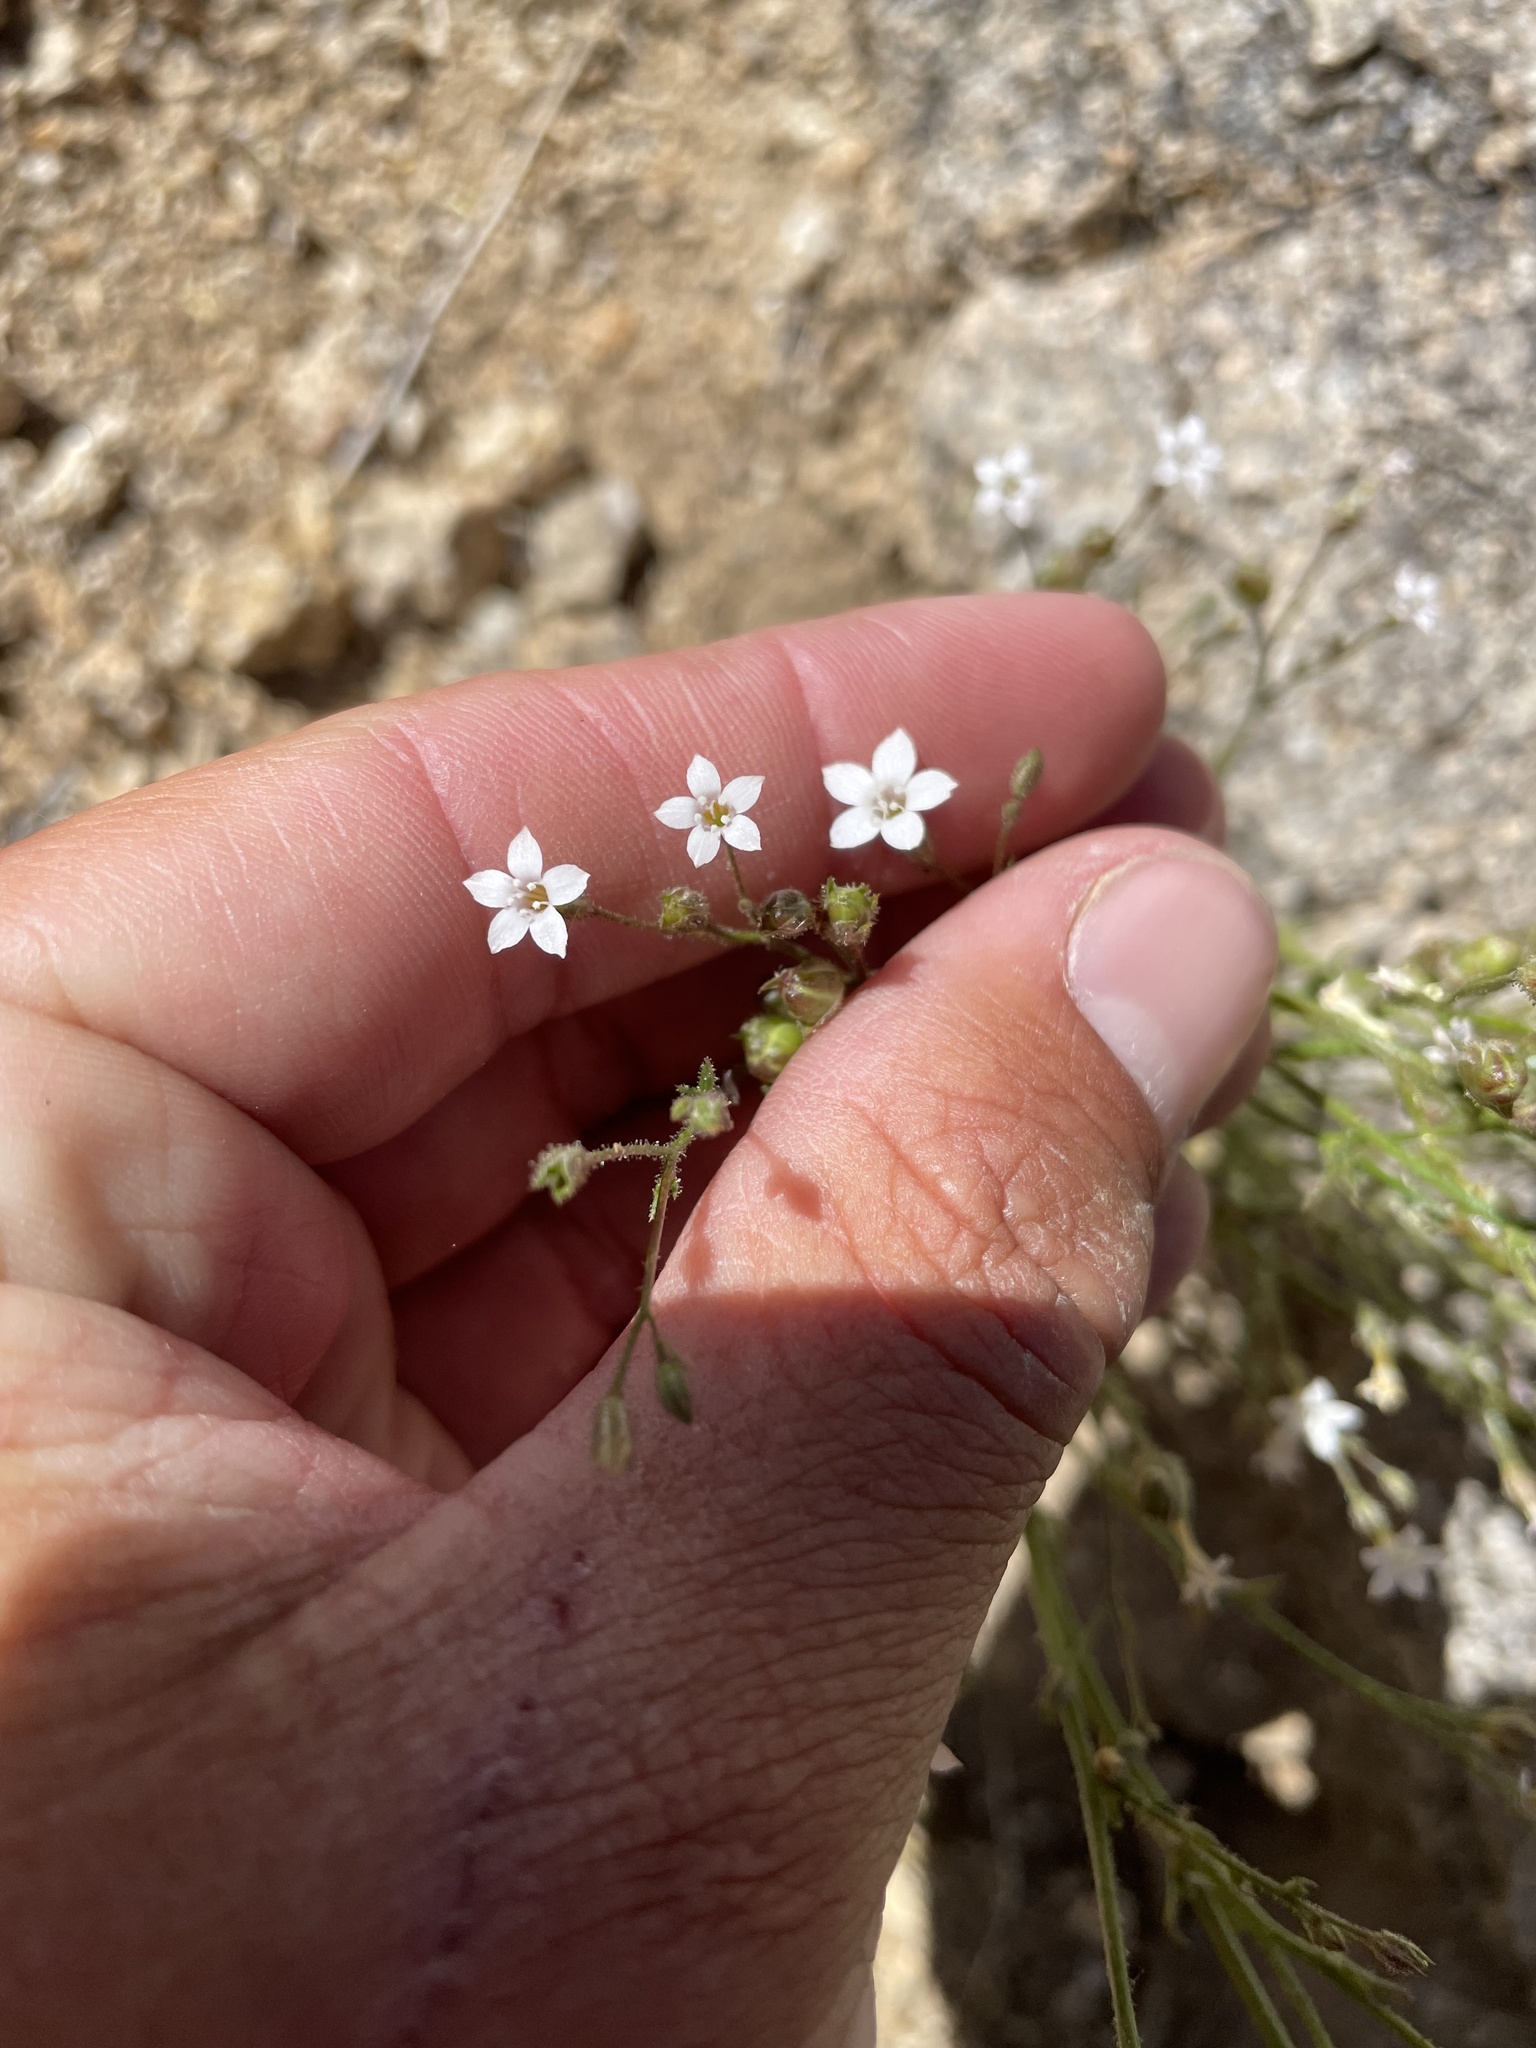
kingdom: Plantae
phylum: Tracheophyta
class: Magnoliopsida
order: Ericales
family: Polemoniaceae
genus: Gilia
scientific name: Gilia stellata
